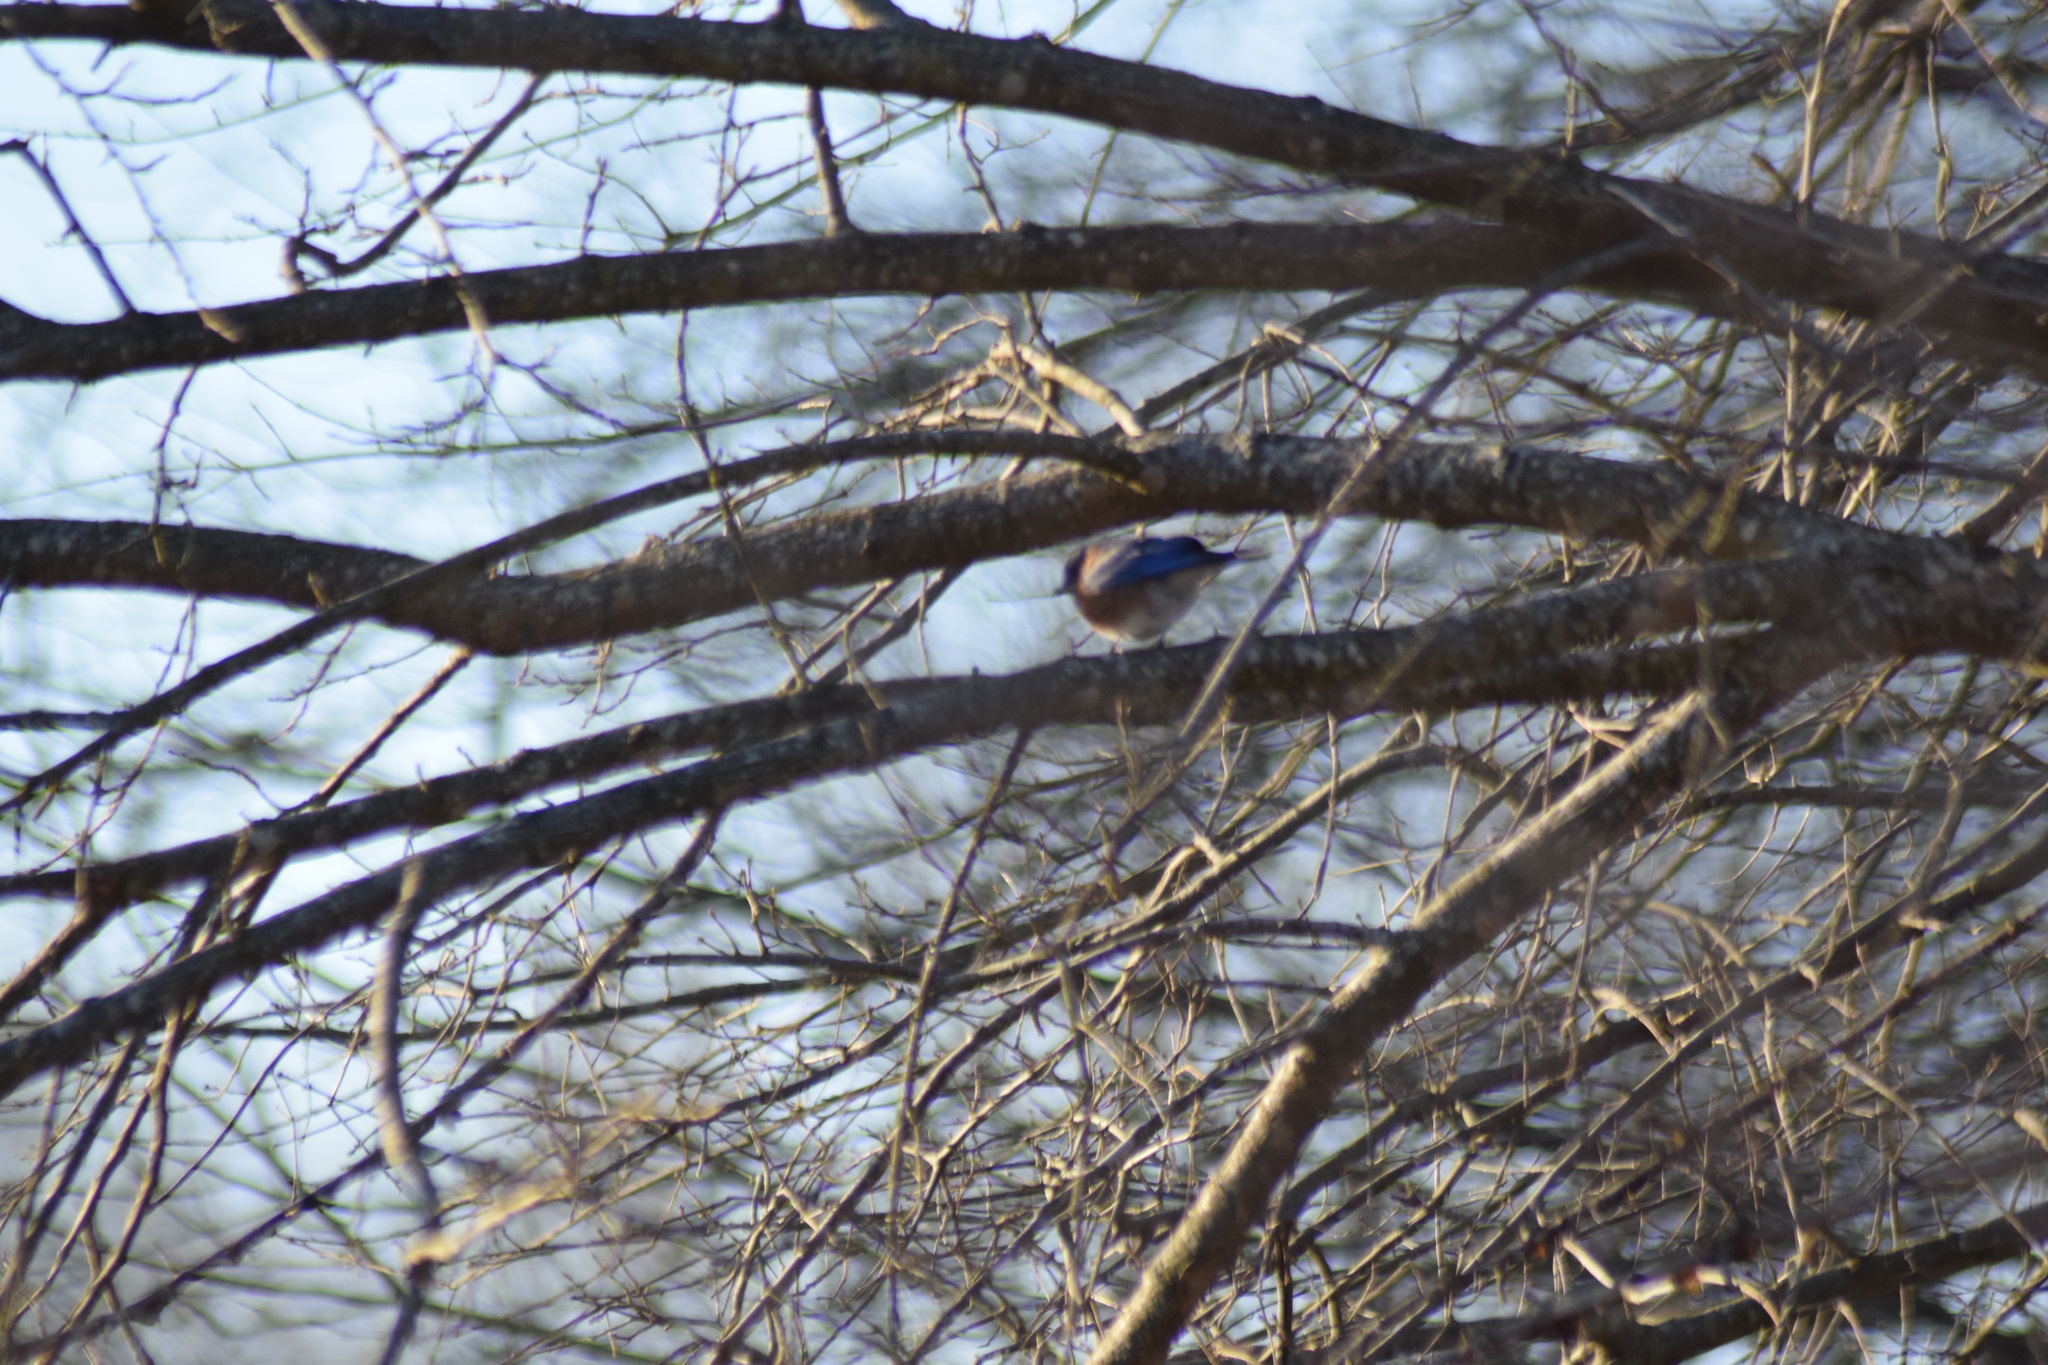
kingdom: Animalia
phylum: Chordata
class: Aves
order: Passeriformes
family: Turdidae
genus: Sialia
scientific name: Sialia sialis
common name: Eastern bluebird
